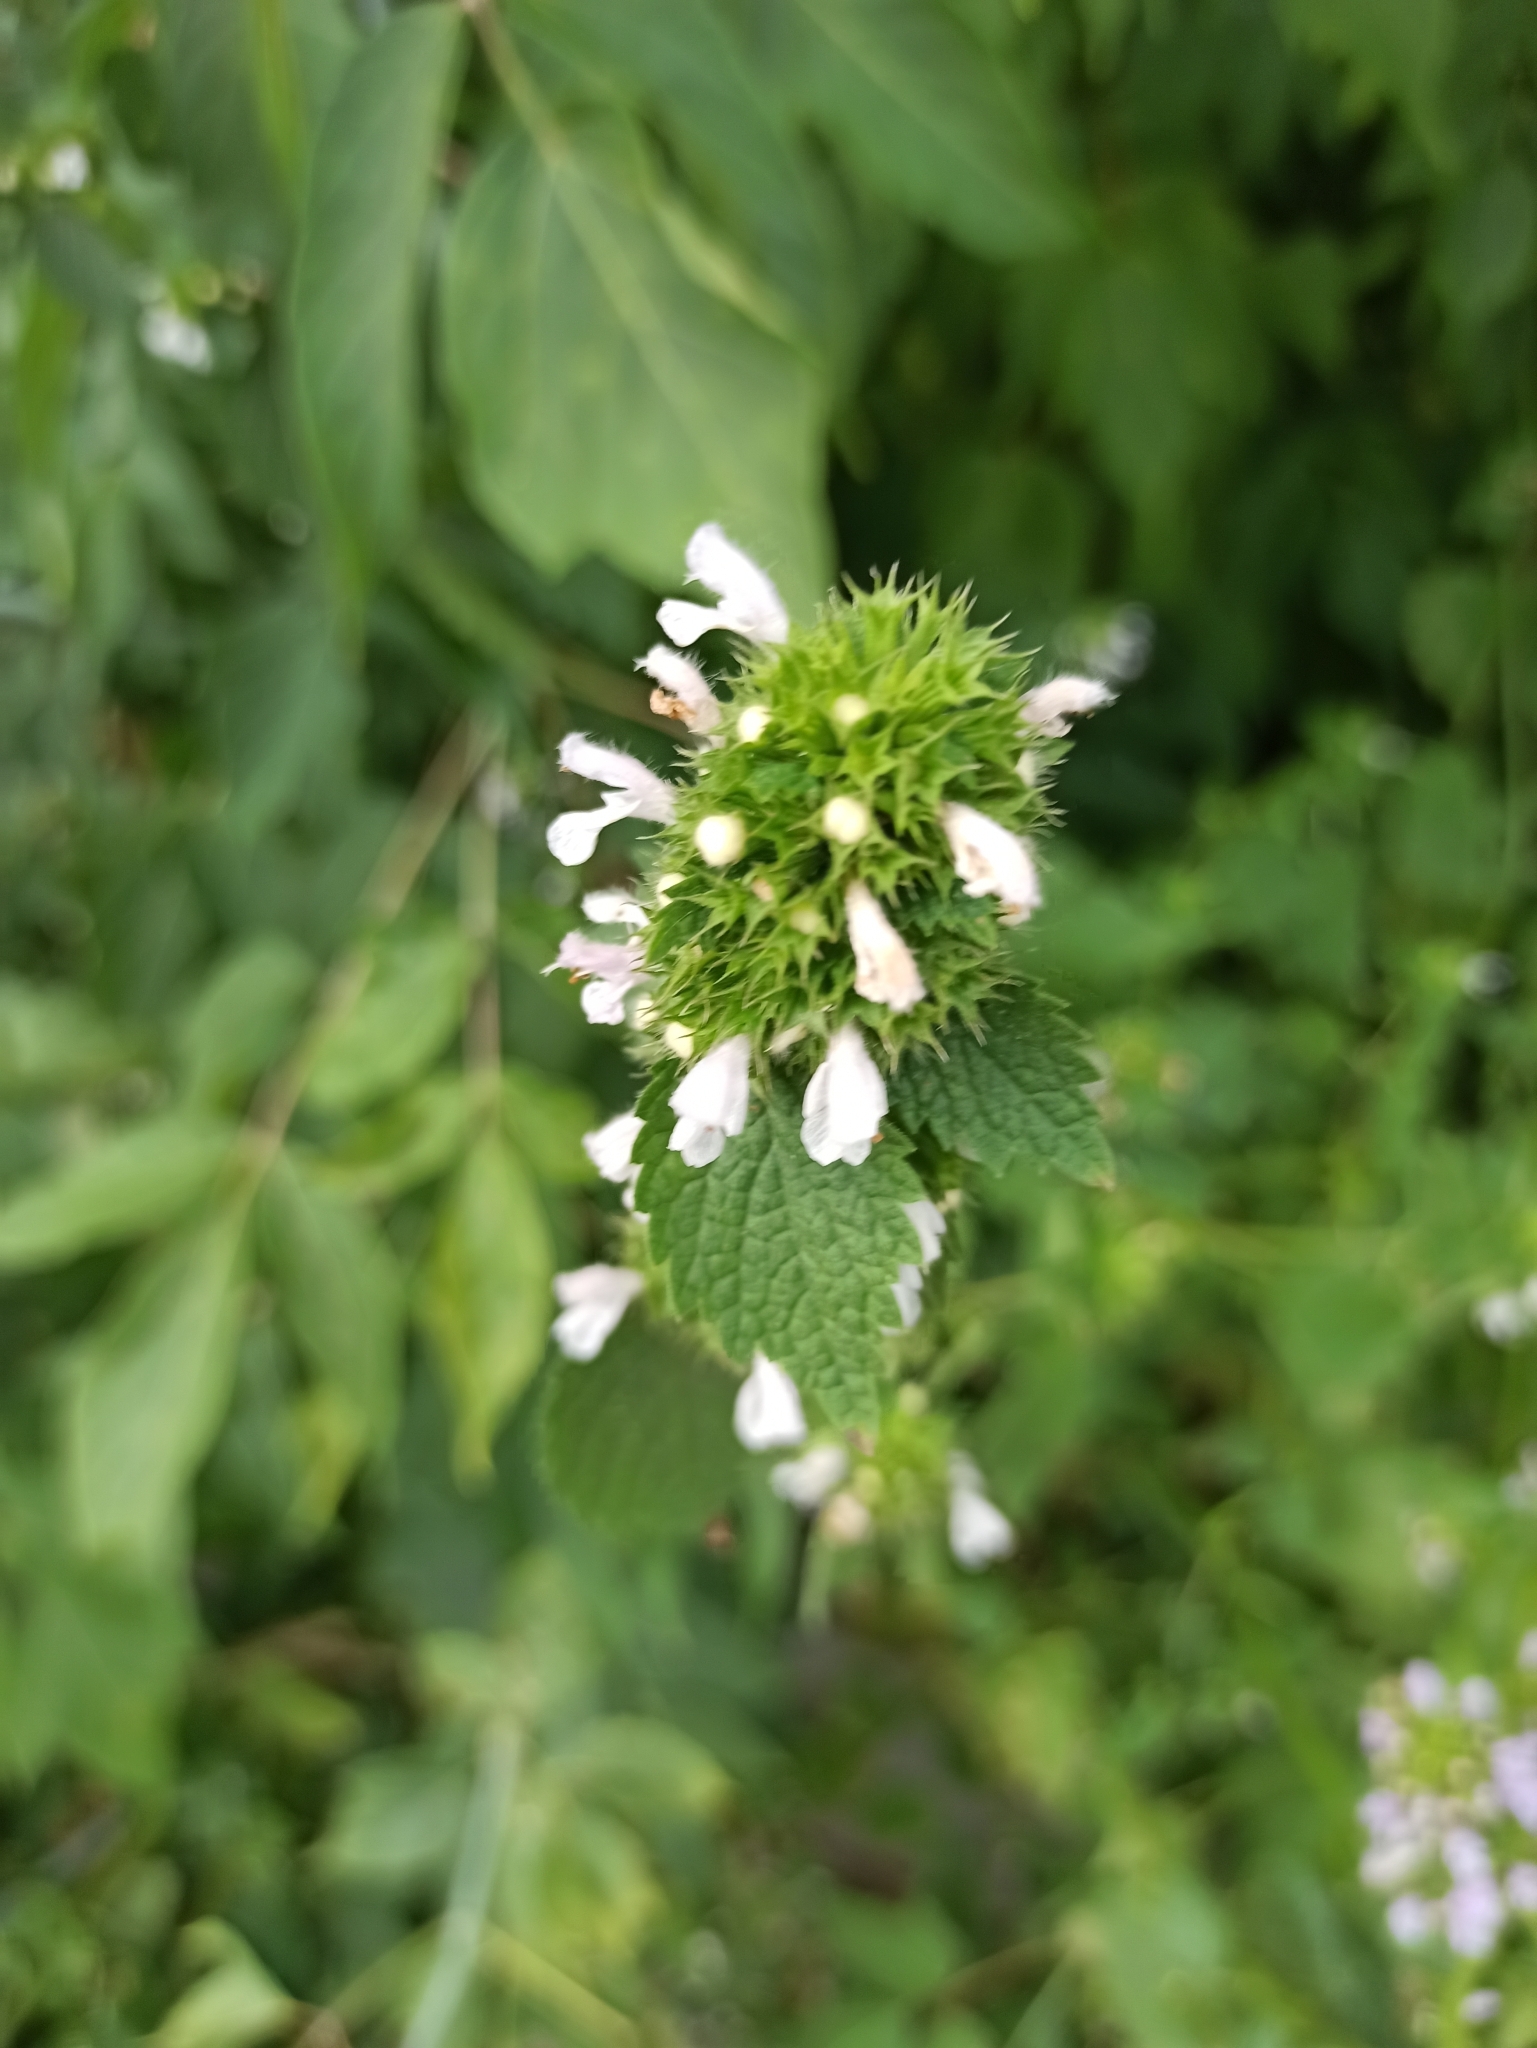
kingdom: Plantae
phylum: Tracheophyta
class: Magnoliopsida
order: Lamiales
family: Lamiaceae
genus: Ballota
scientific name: Ballota nigra
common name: Black horehound
